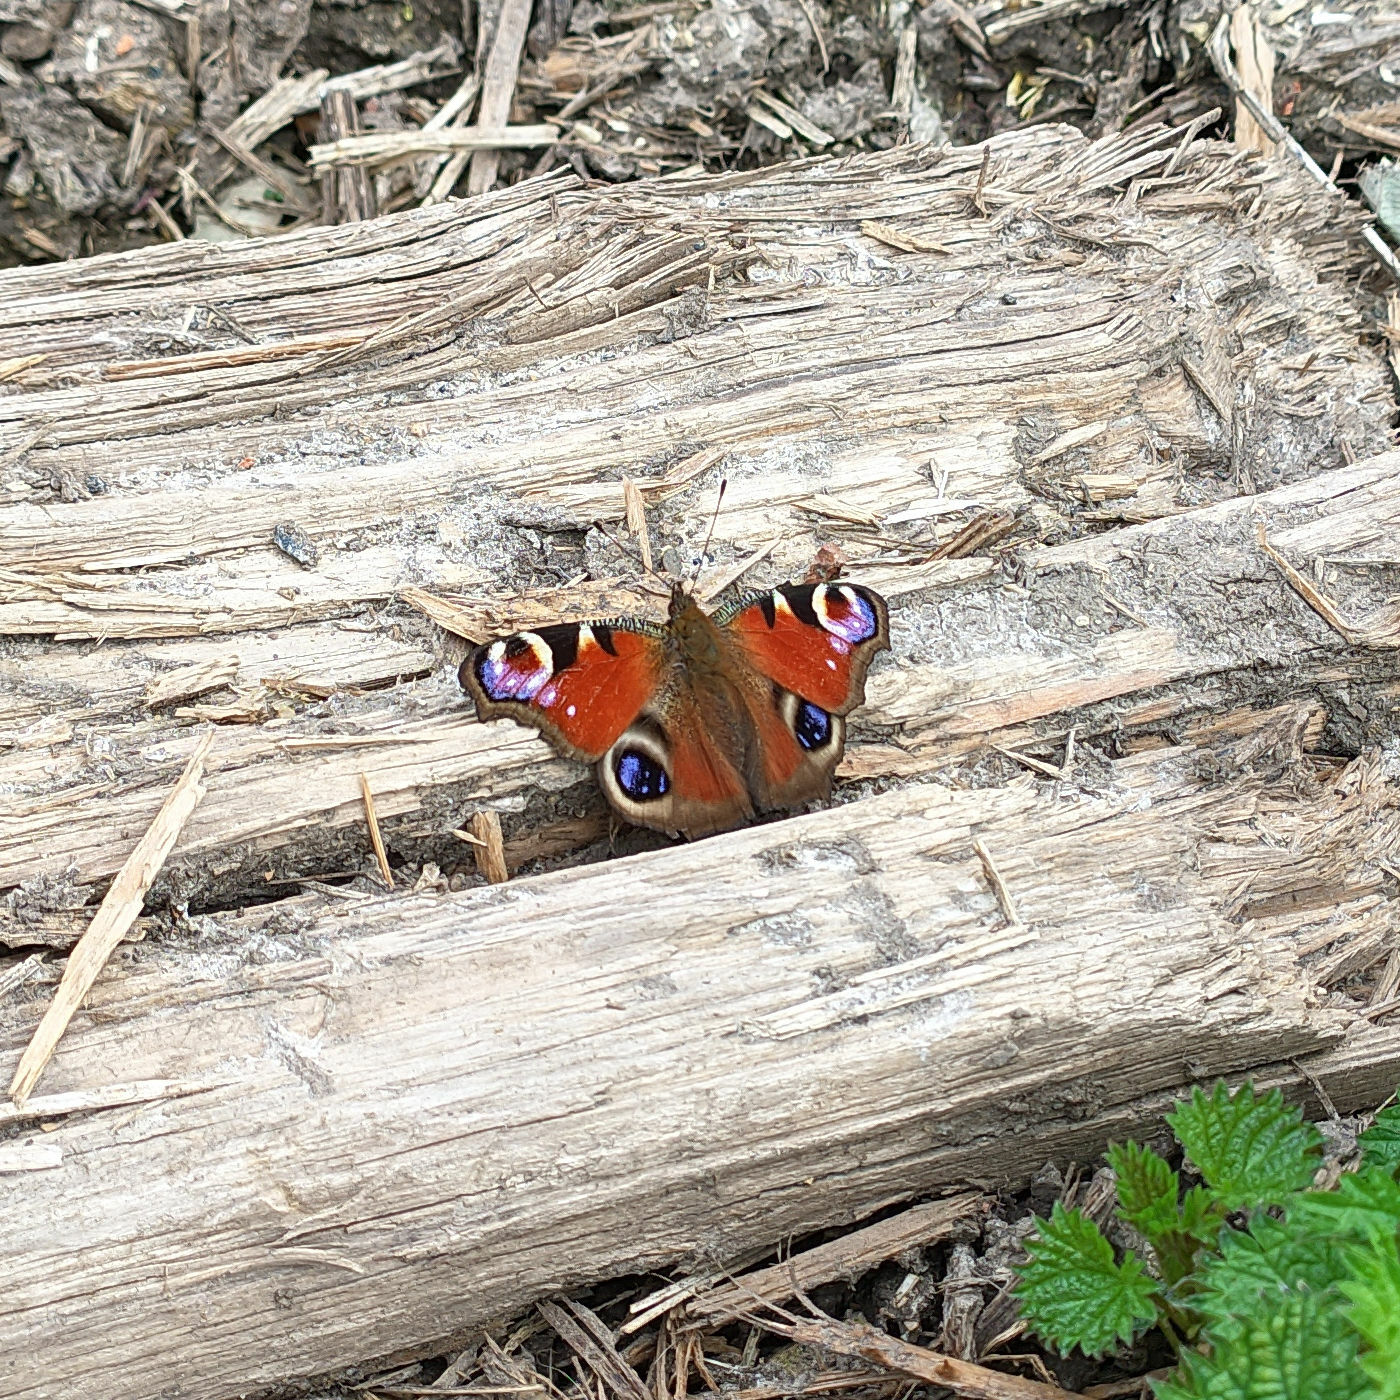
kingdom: Animalia
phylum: Arthropoda
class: Insecta
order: Lepidoptera
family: Nymphalidae
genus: Aglais
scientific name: Aglais io
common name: Peacock
